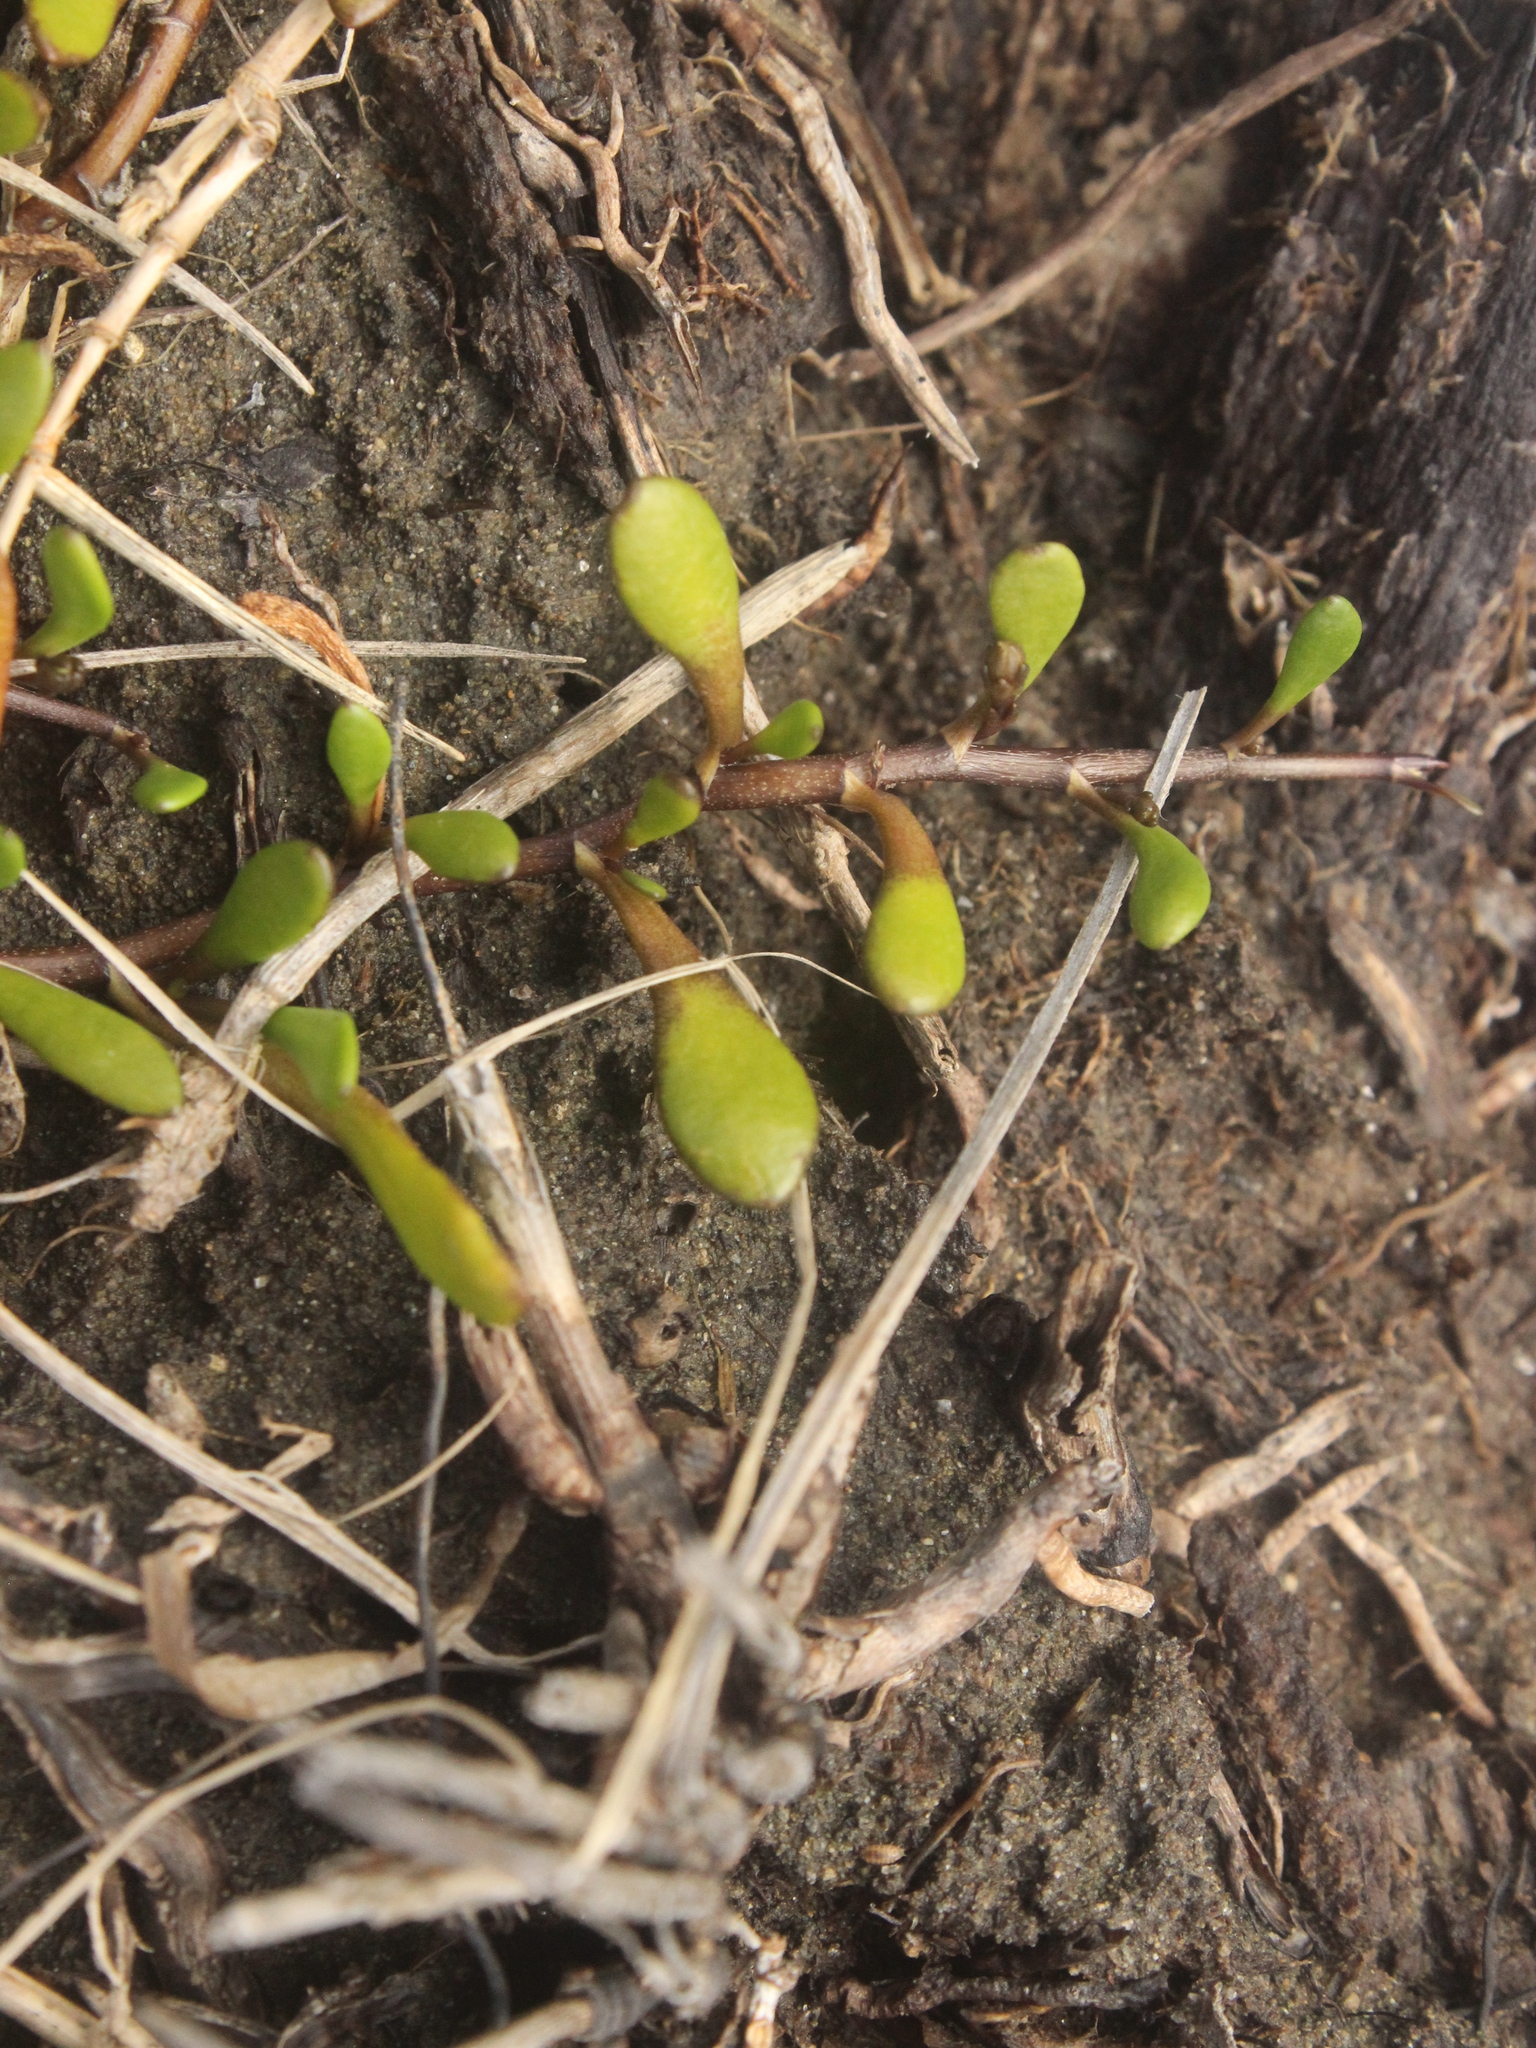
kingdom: Plantae
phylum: Tracheophyta
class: Magnoliopsida
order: Asterales
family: Goodeniaceae
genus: Goodenia
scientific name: Goodenia radicans
